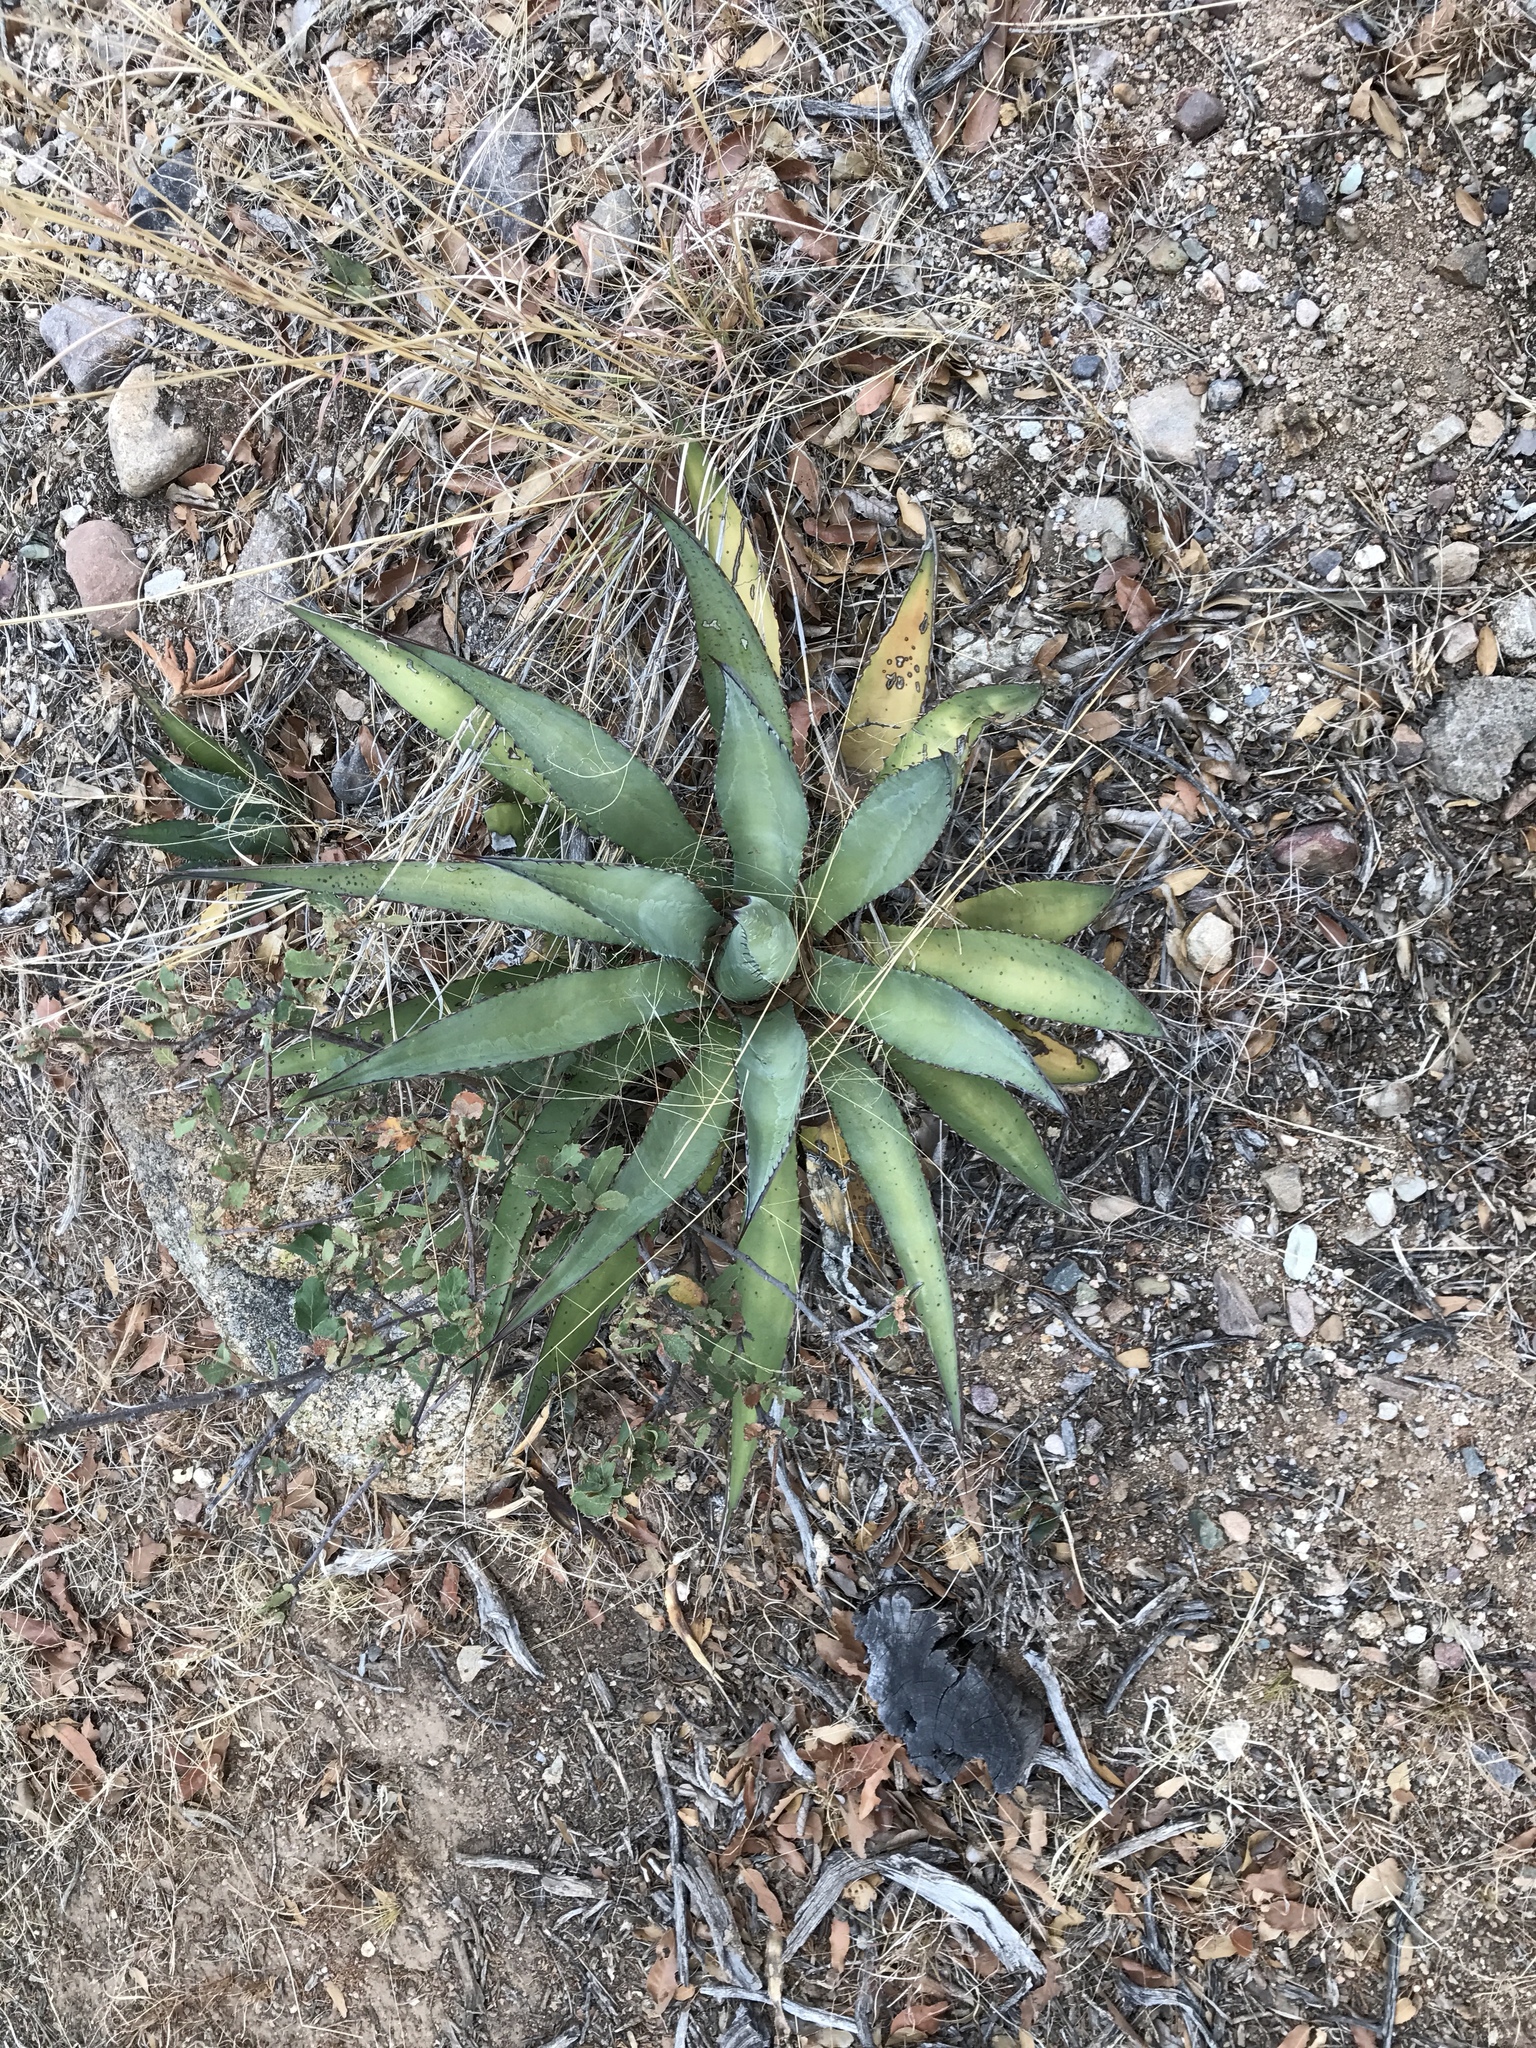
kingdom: Plantae
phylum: Tracheophyta
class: Liliopsida
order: Asparagales
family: Asparagaceae
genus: Agave
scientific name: Agave shrevei
